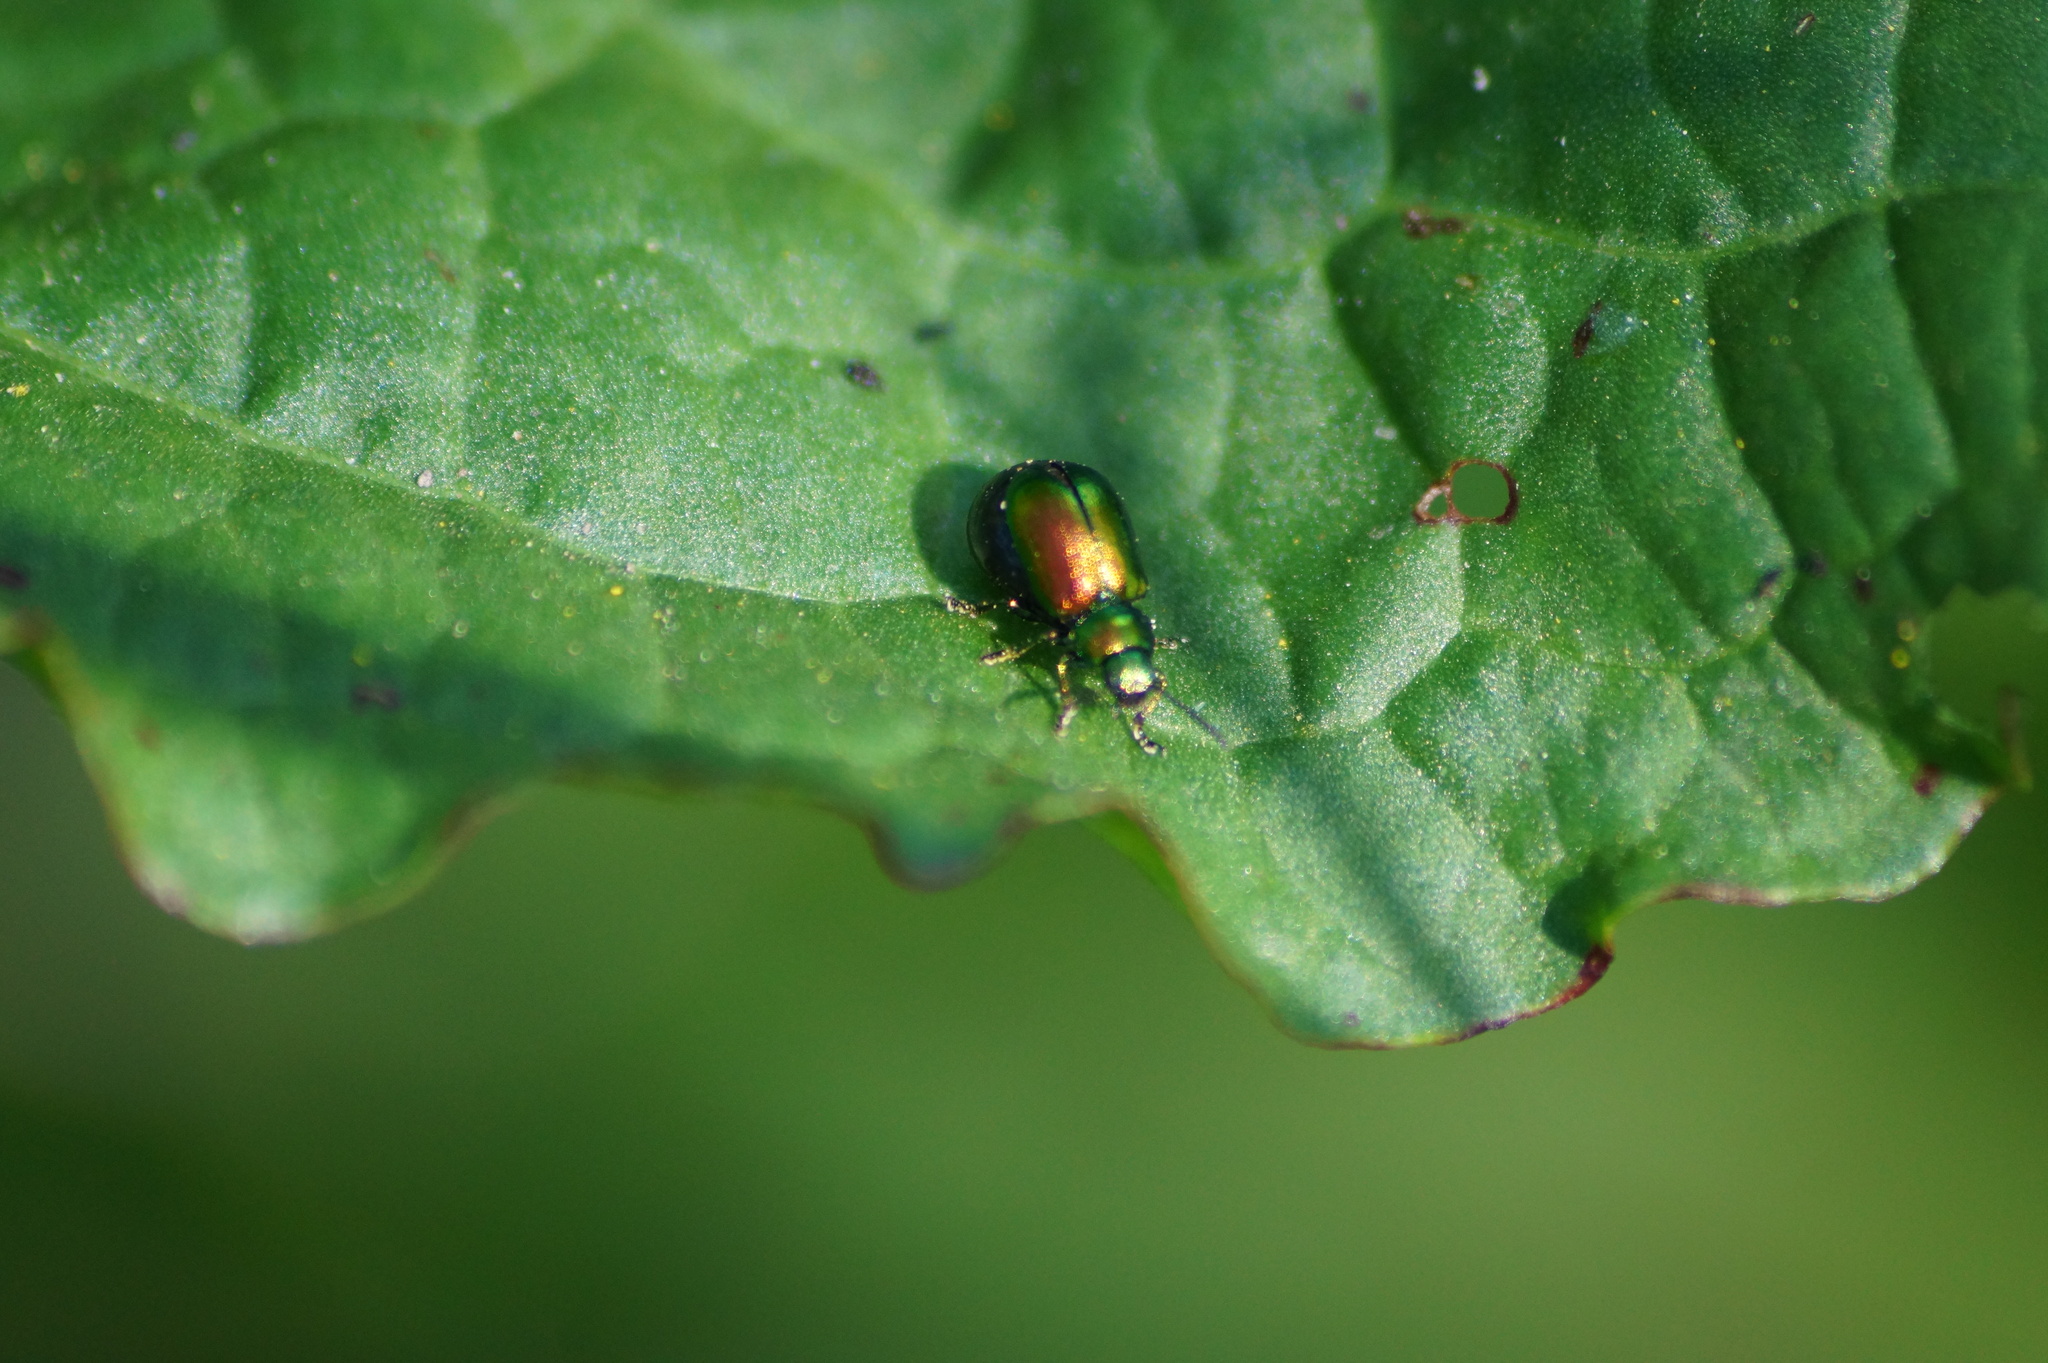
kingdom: Animalia
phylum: Arthropoda
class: Insecta
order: Coleoptera
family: Chrysomelidae
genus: Gastrophysa
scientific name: Gastrophysa viridula
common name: Green dock beetle
